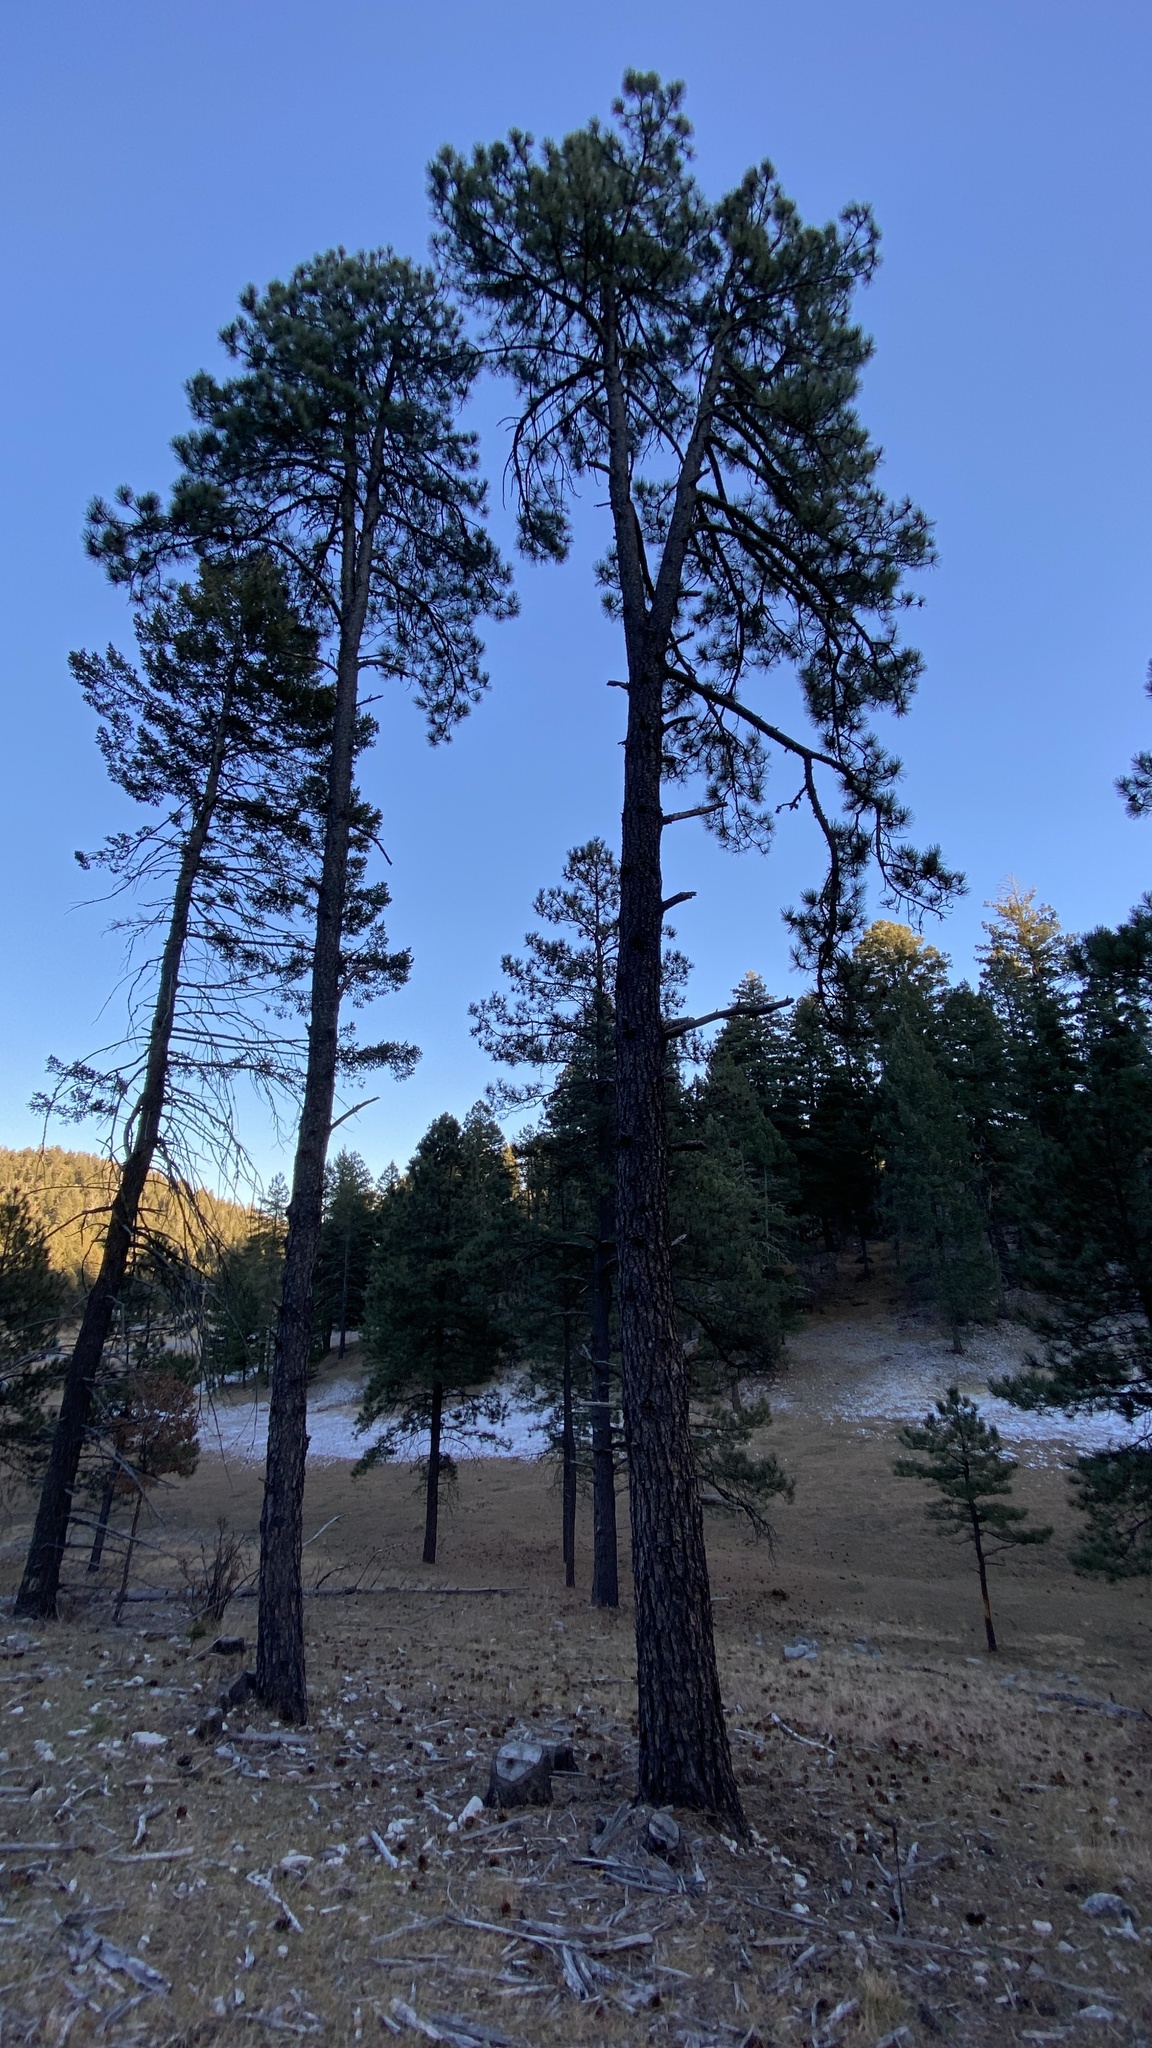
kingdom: Plantae
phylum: Tracheophyta
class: Pinopsida
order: Pinales
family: Pinaceae
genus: Pinus
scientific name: Pinus ponderosa
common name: Western yellow-pine
